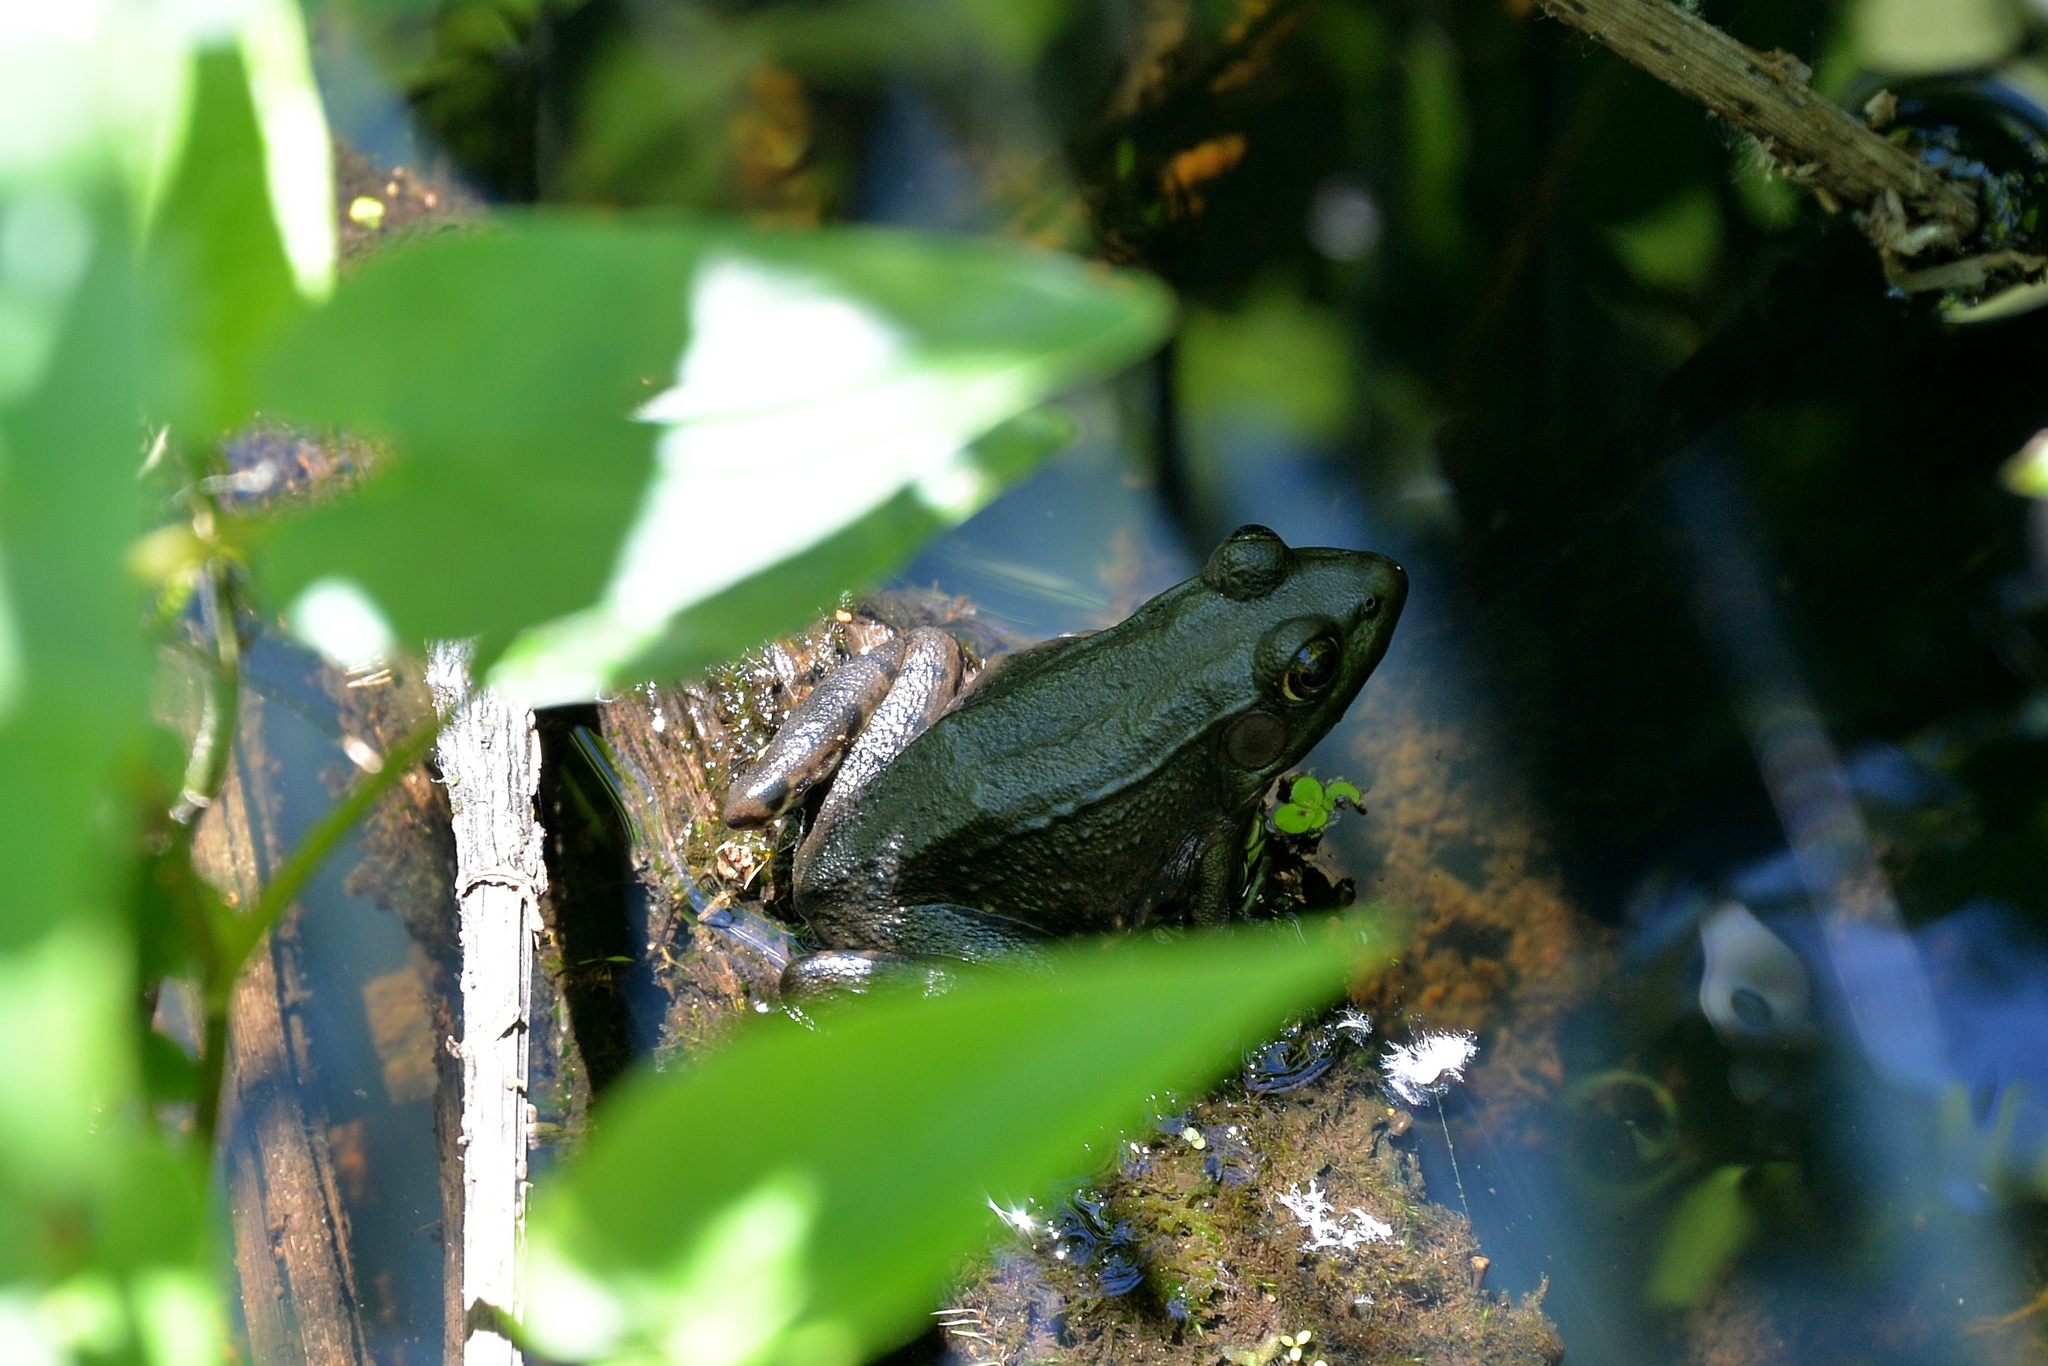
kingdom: Animalia
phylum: Chordata
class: Amphibia
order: Anura
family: Ranidae
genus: Lithobates
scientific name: Lithobates clamitans
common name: Green frog
